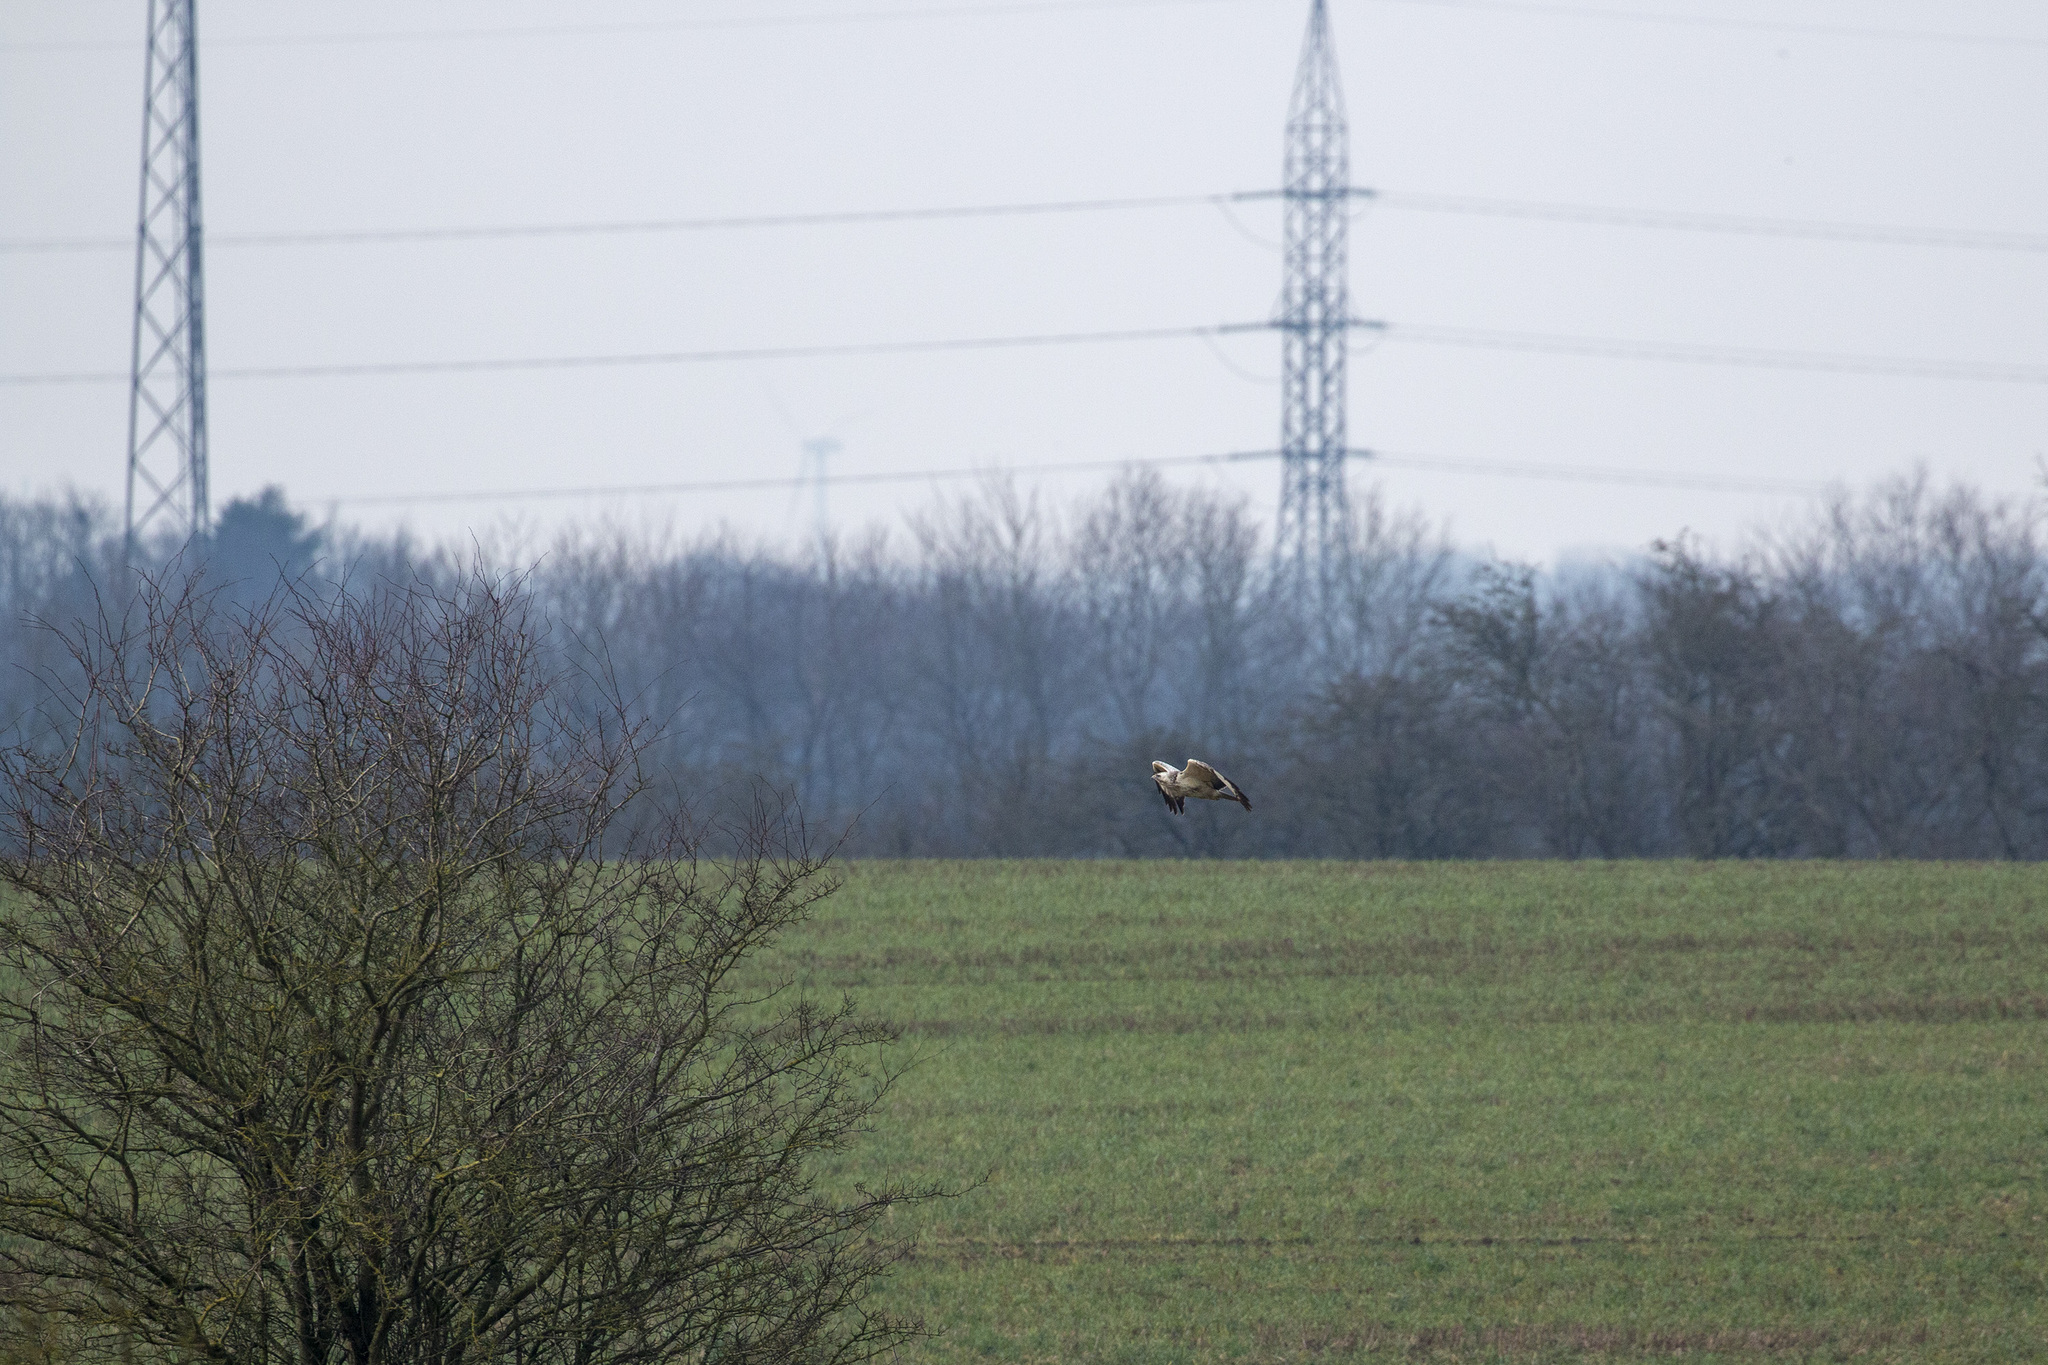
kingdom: Animalia
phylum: Chordata
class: Aves
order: Accipitriformes
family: Accipitridae
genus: Buteo
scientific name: Buteo buteo
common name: Common buzzard
